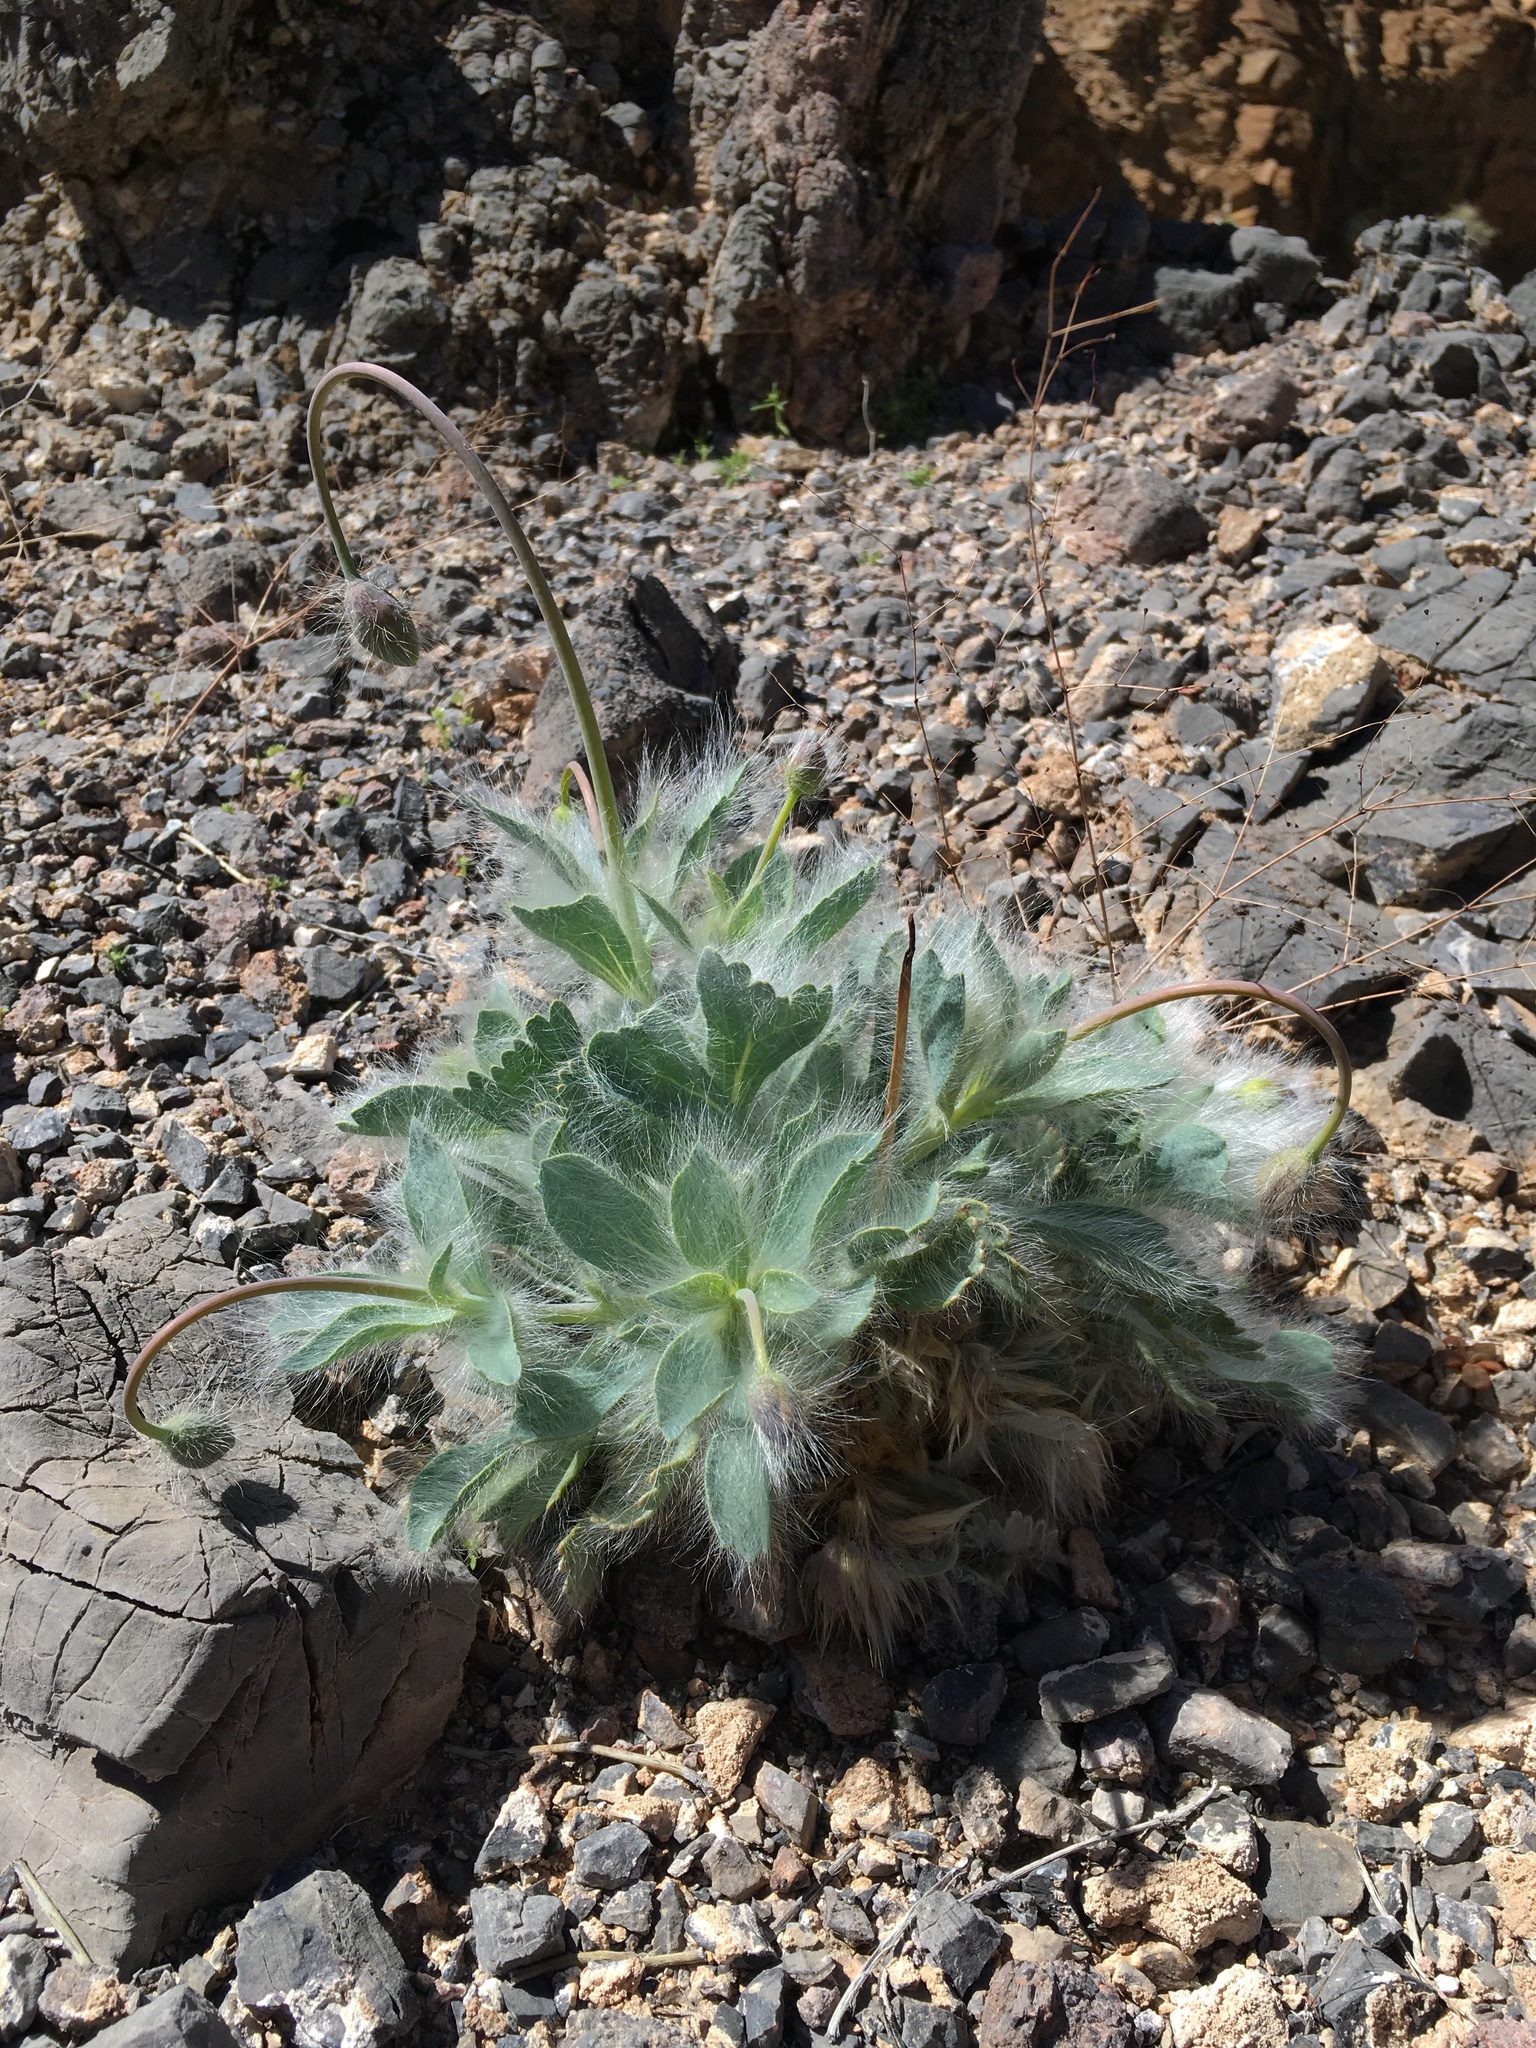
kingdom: Plantae
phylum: Tracheophyta
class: Magnoliopsida
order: Ranunculales
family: Papaveraceae
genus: Arctomecon
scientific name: Arctomecon merriamii
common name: White bear-poppy
